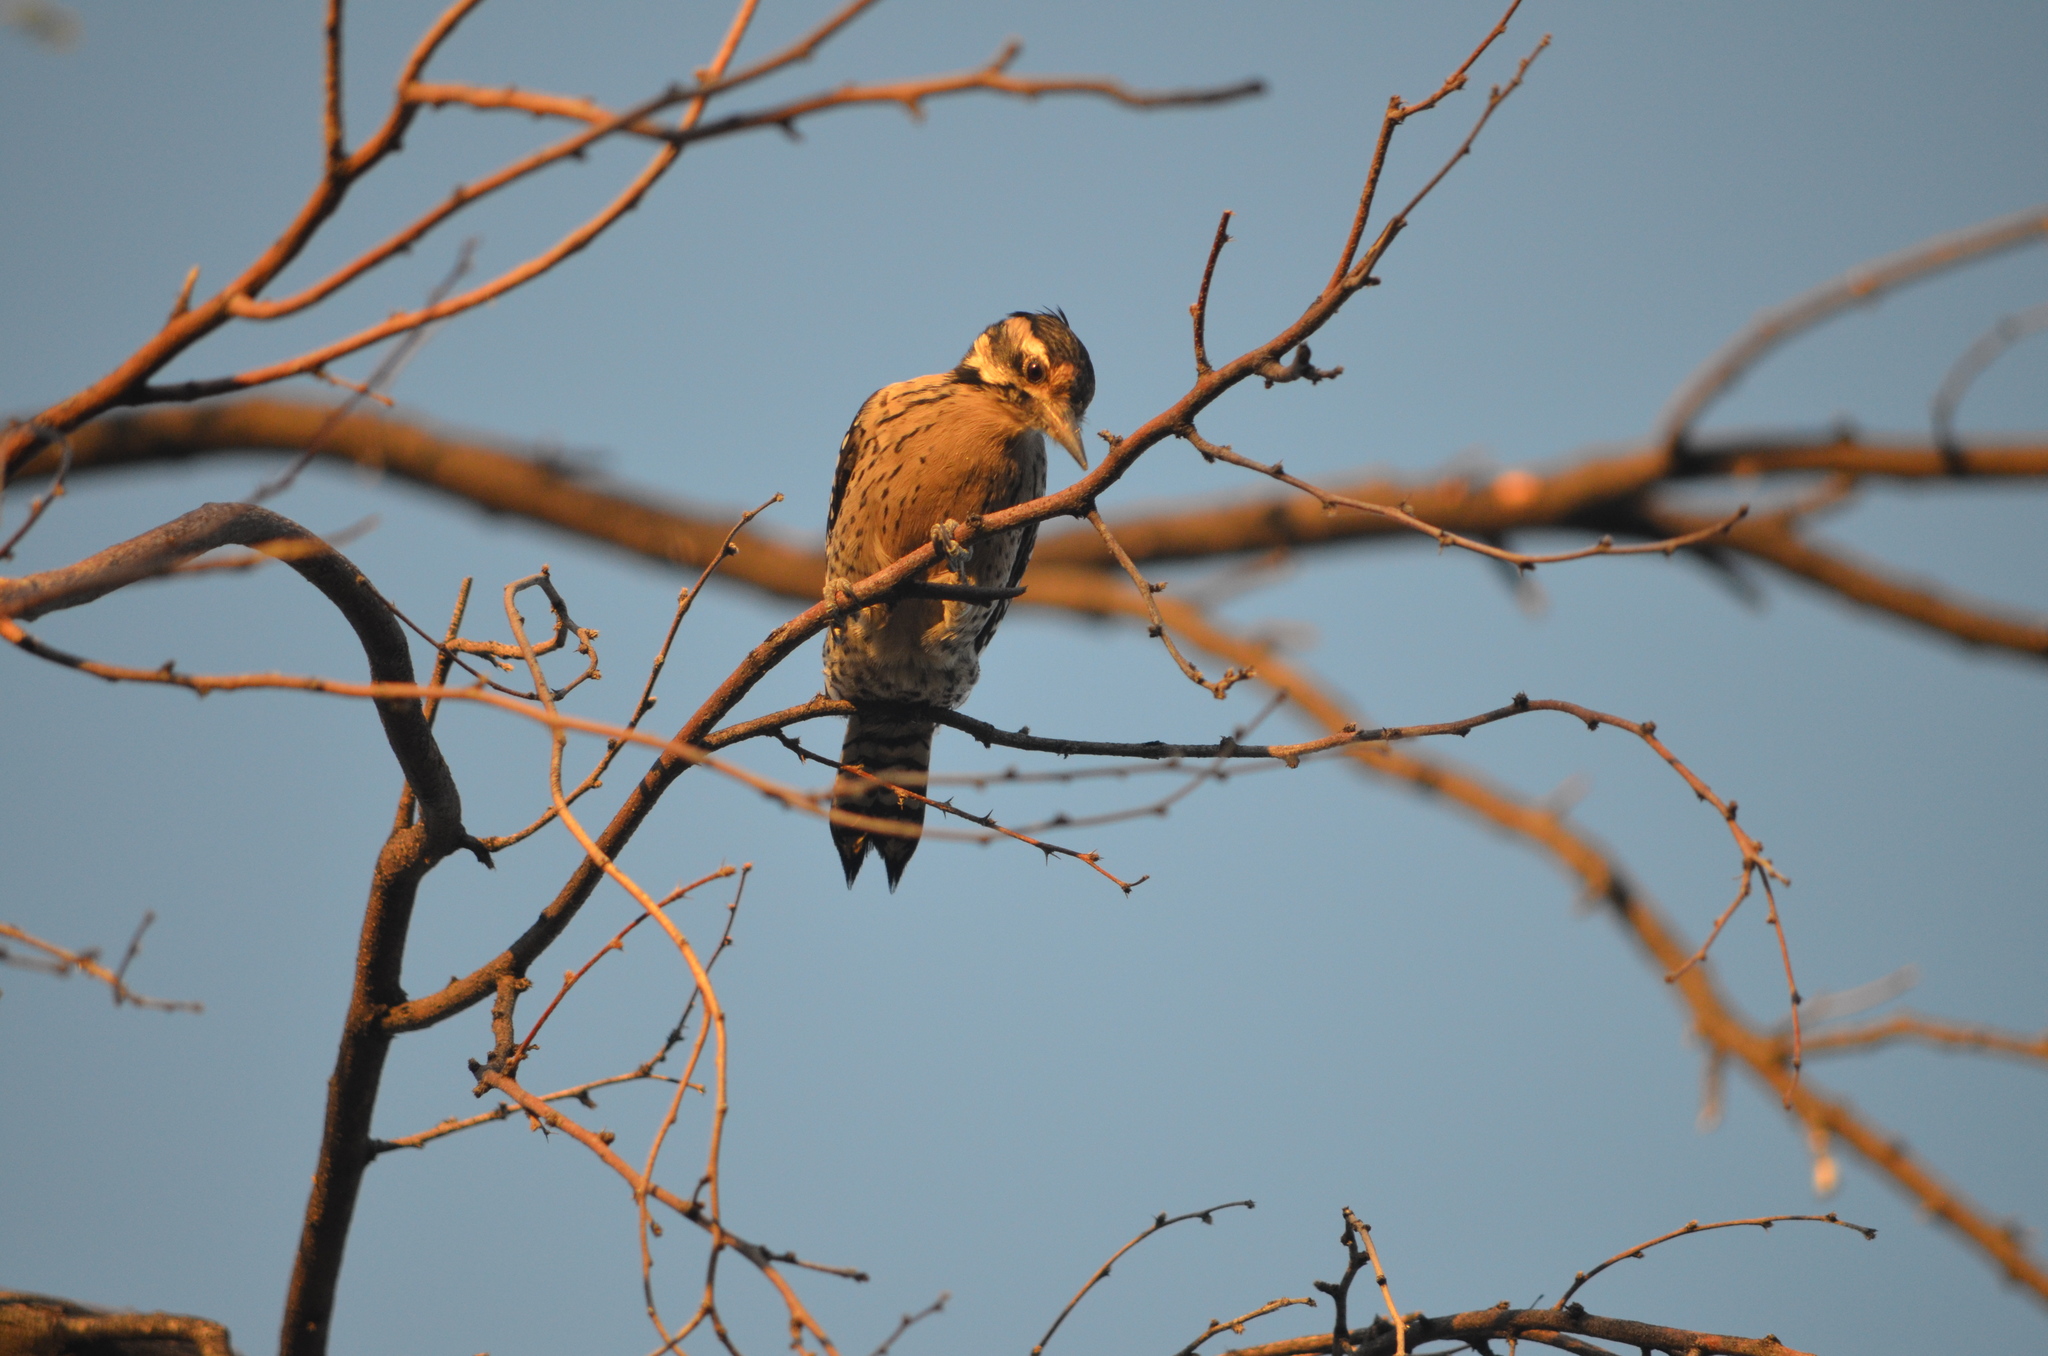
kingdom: Animalia
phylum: Chordata
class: Aves
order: Piciformes
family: Picidae
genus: Dryobates
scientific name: Dryobates scalaris
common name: Ladder-backed woodpecker
